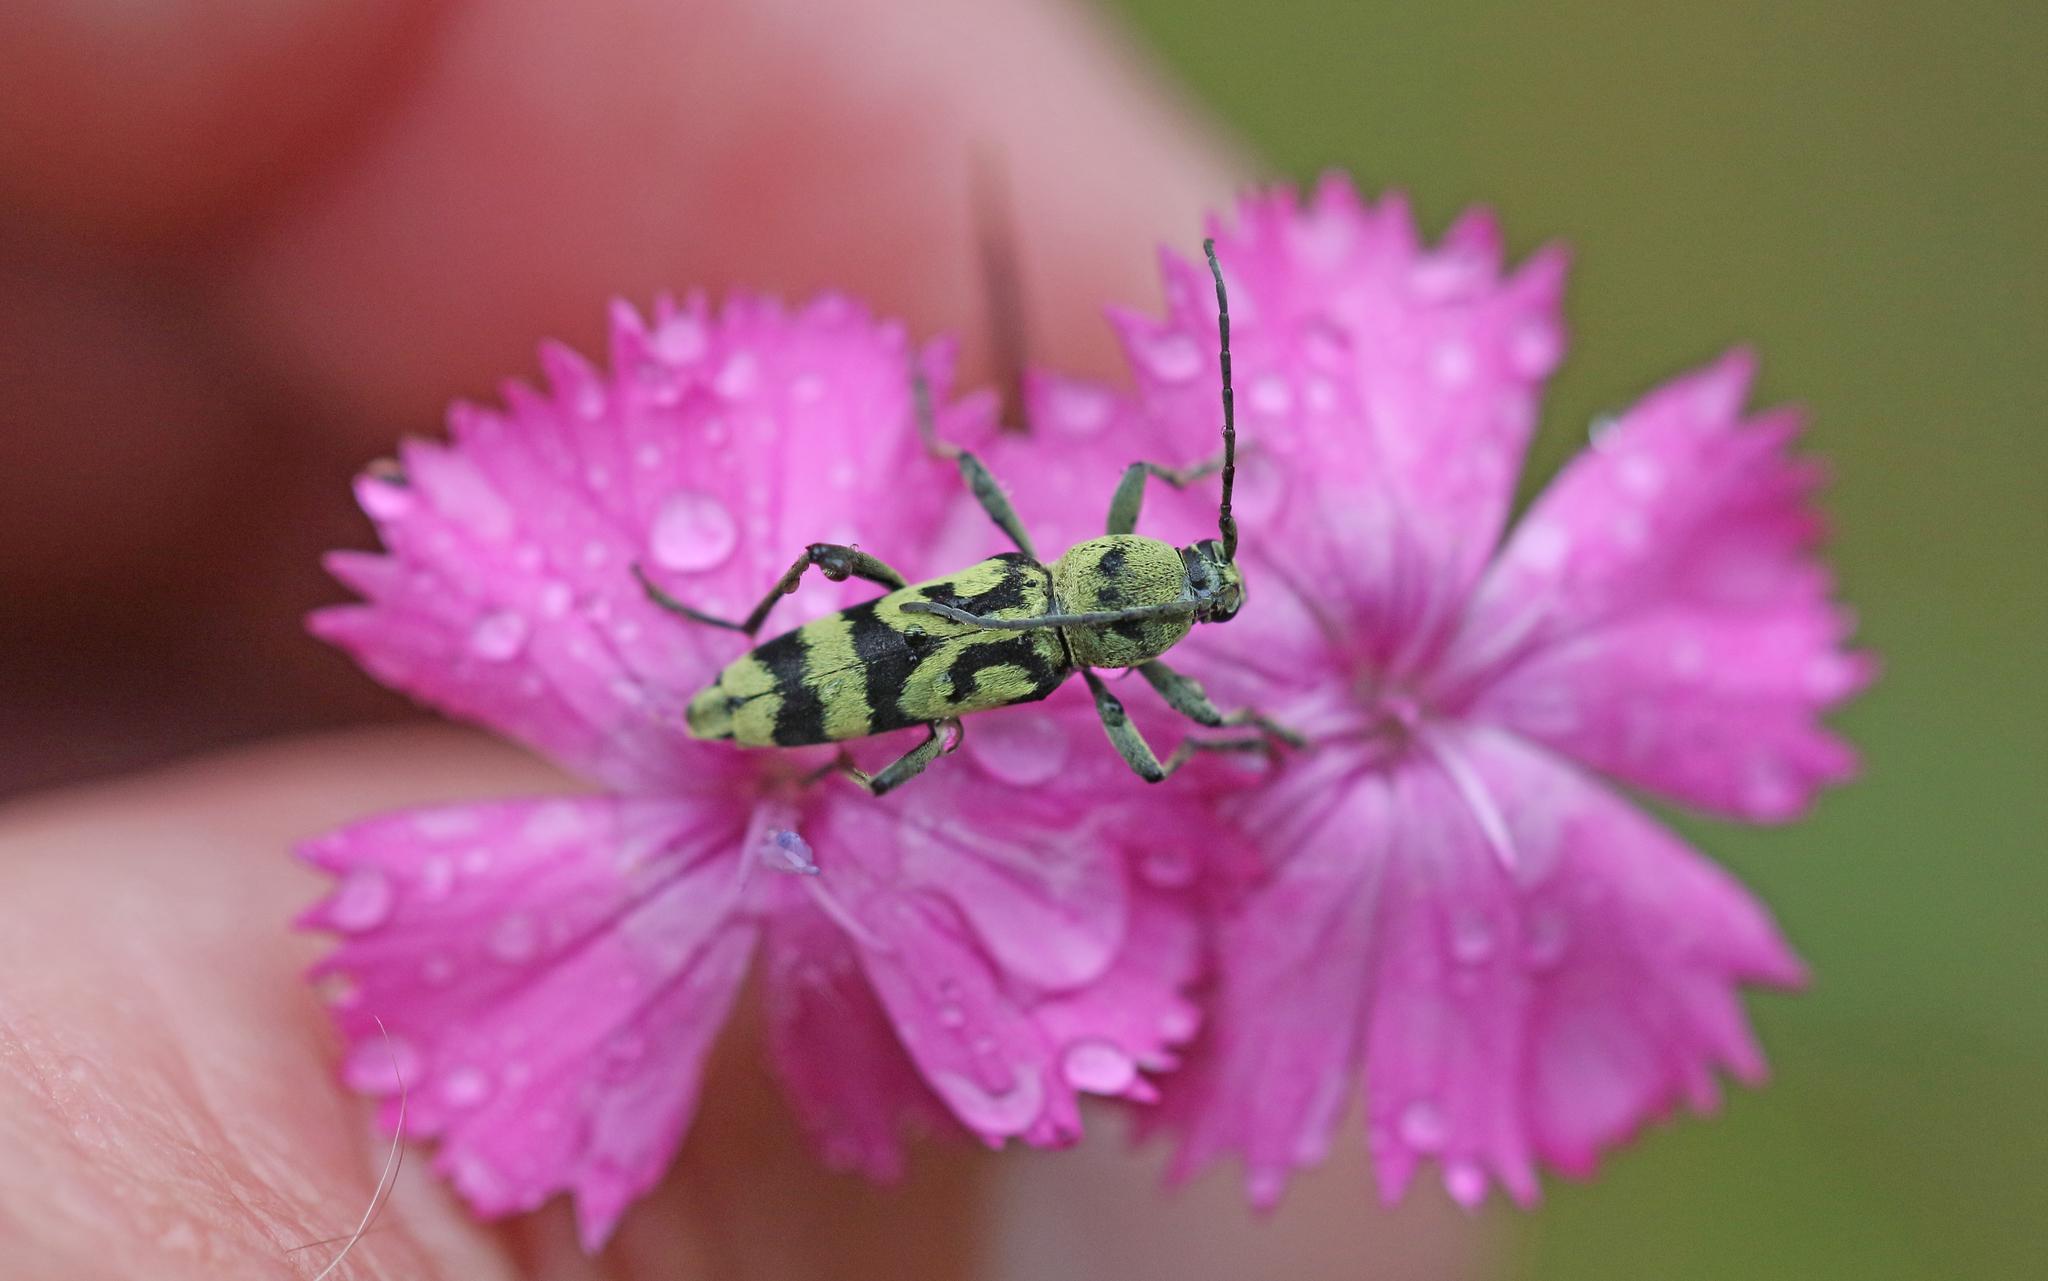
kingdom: Animalia
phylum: Arthropoda
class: Insecta
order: Coleoptera
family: Cerambycidae
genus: Chlorophorus
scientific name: Chlorophorus varius
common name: Grape wood borer
